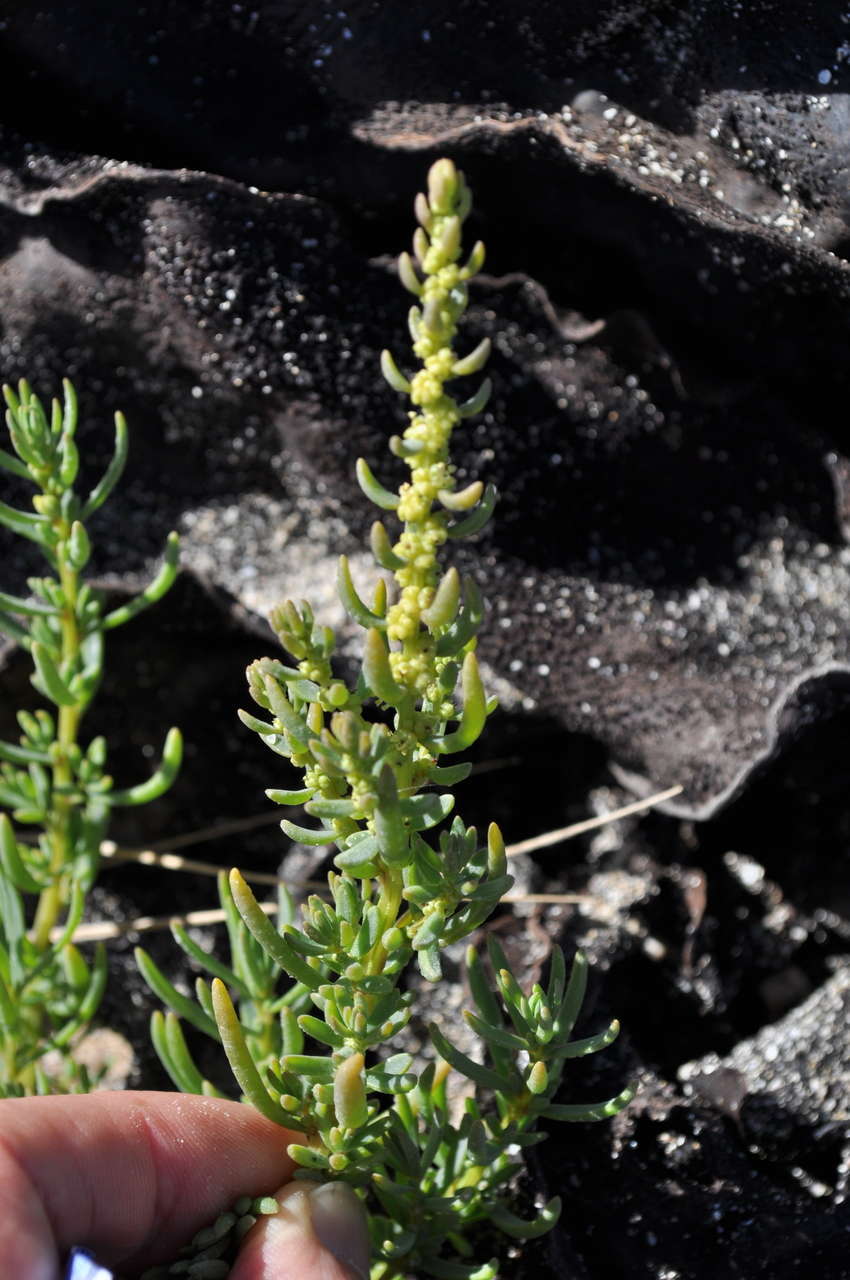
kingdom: Plantae
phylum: Tracheophyta
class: Magnoliopsida
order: Caryophyllales
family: Amaranthaceae
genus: Suaeda
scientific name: Suaeda australis
